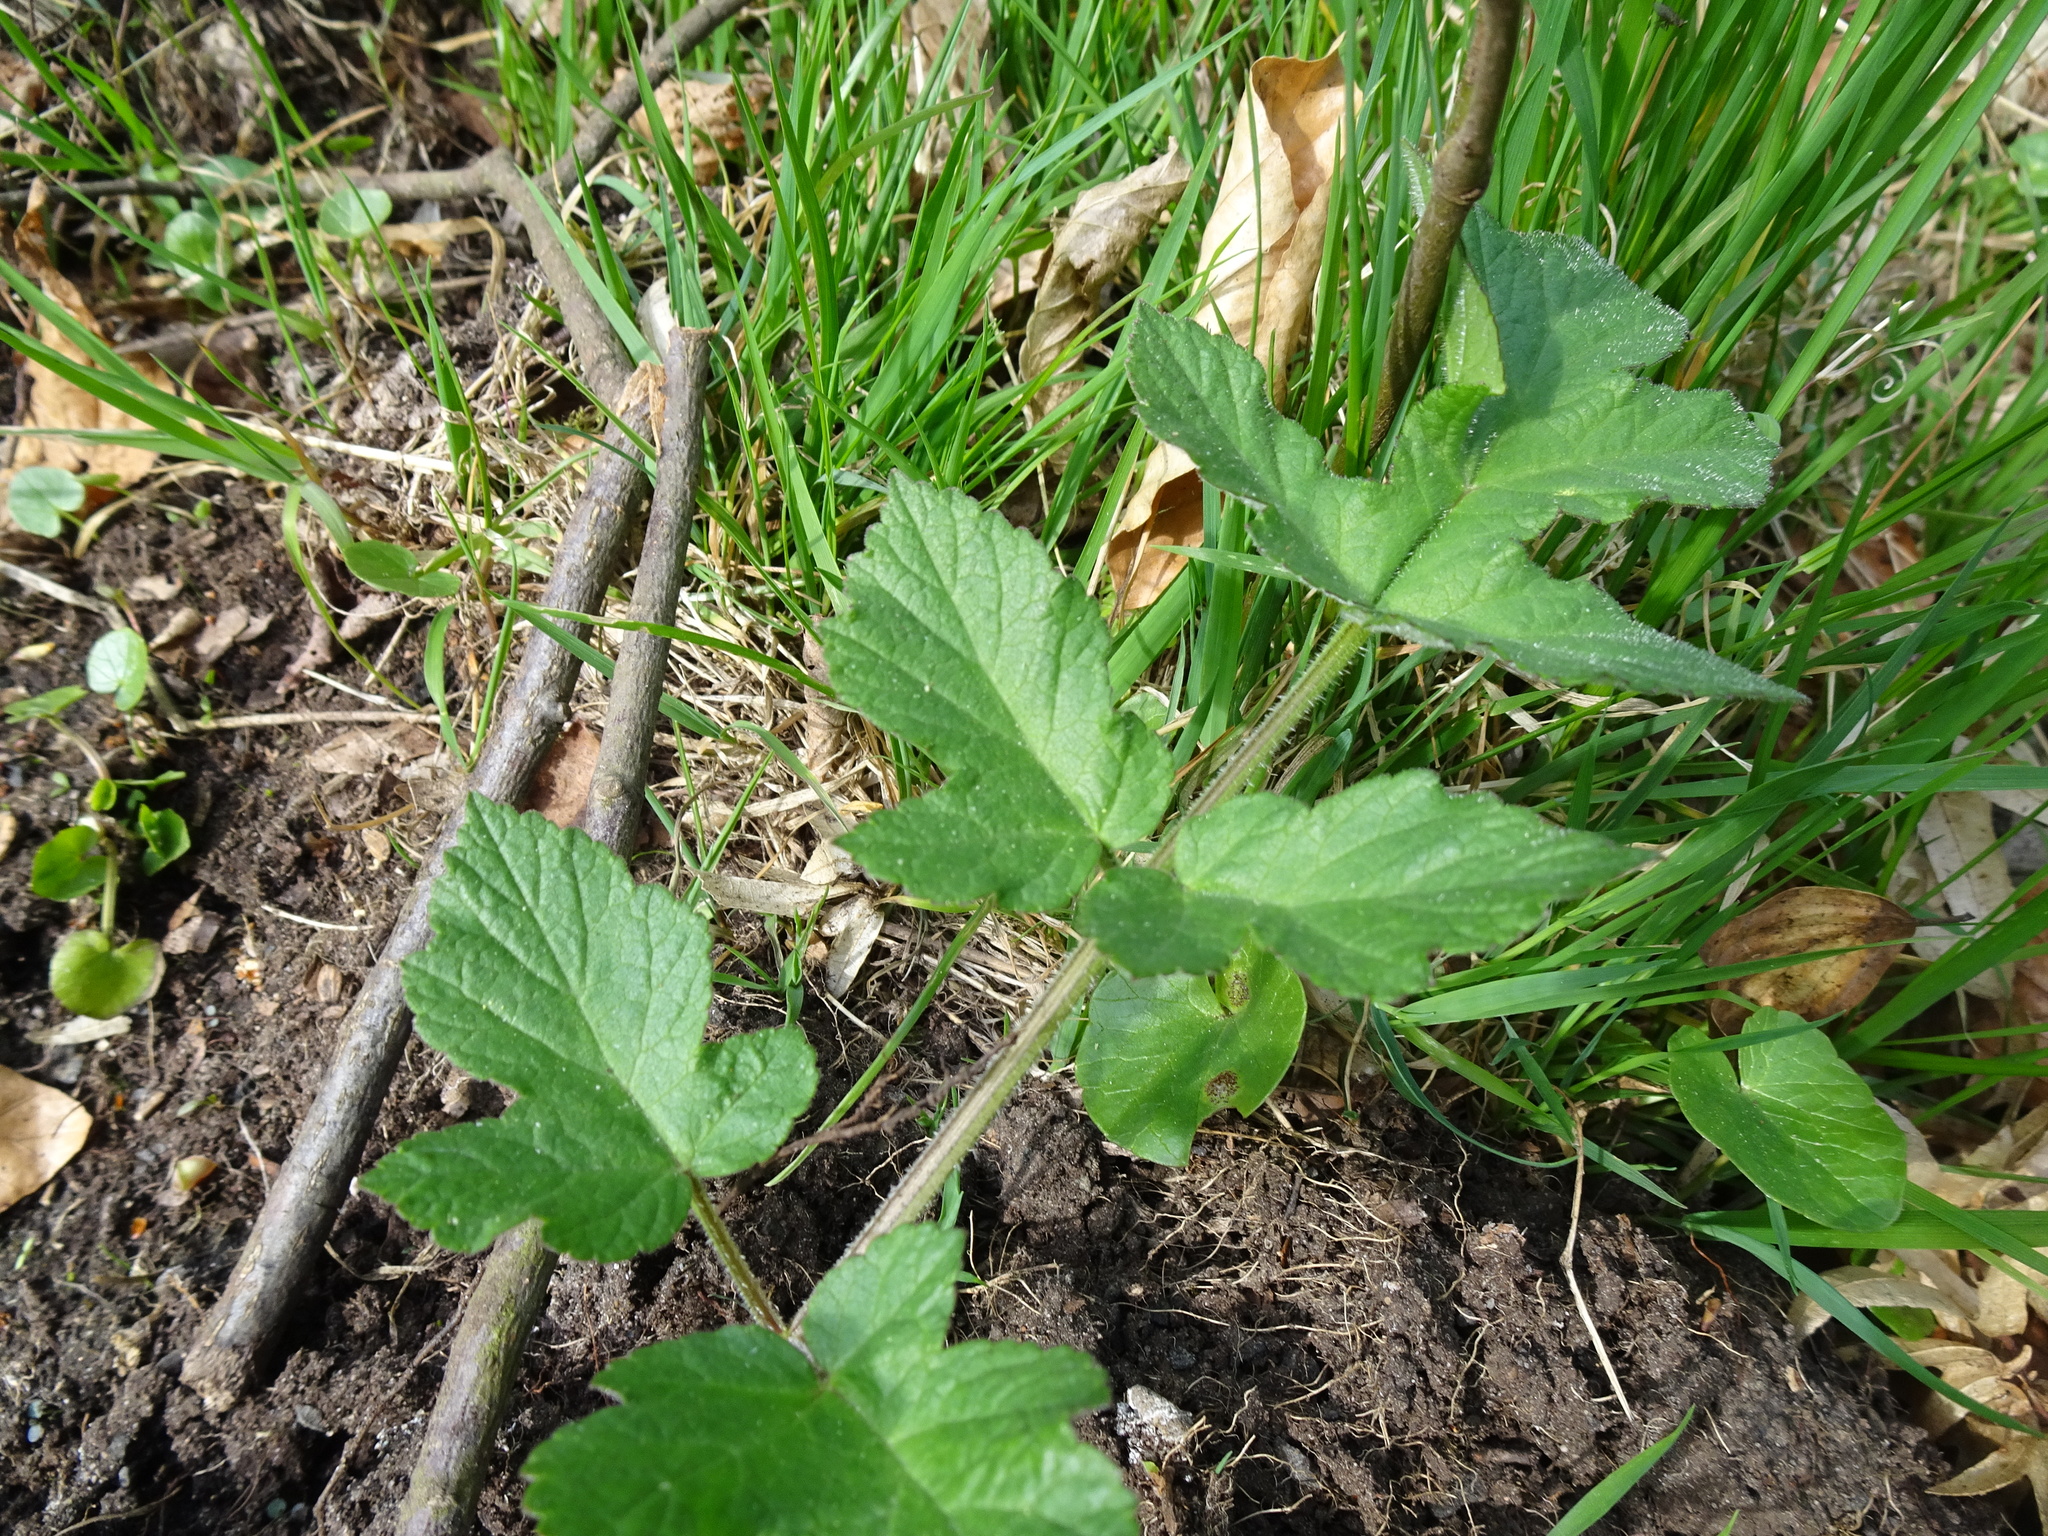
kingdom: Plantae
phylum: Tracheophyta
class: Magnoliopsida
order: Apiales
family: Apiaceae
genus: Heracleum
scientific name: Heracleum sphondylium
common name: Hogweed
